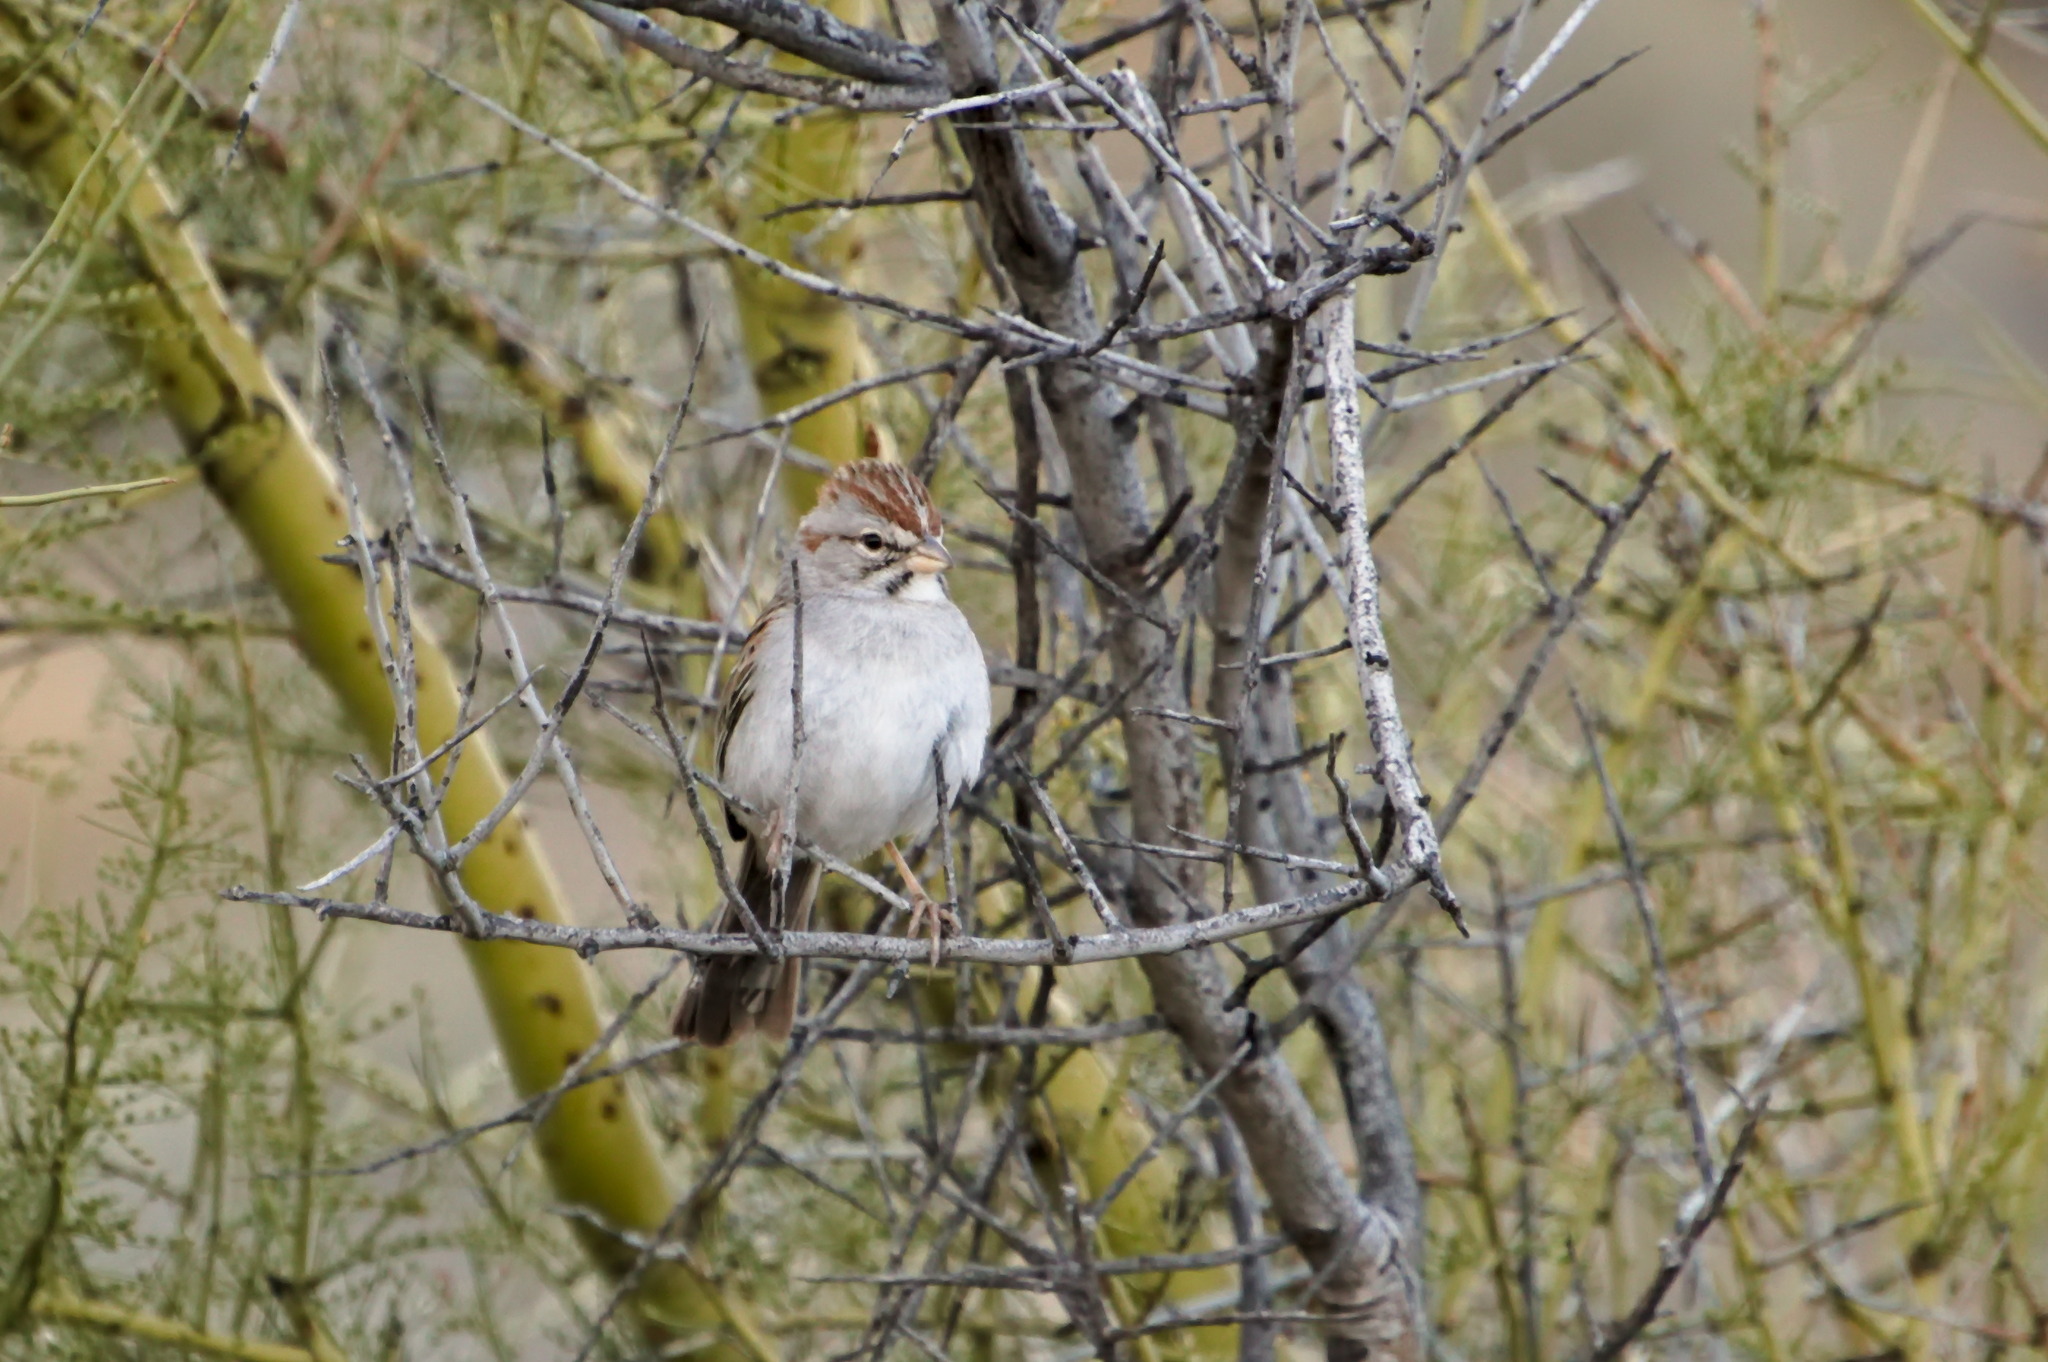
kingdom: Animalia
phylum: Chordata
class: Aves
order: Passeriformes
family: Passerellidae
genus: Peucaea
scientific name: Peucaea carpalis
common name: Rufous-winged sparrow
